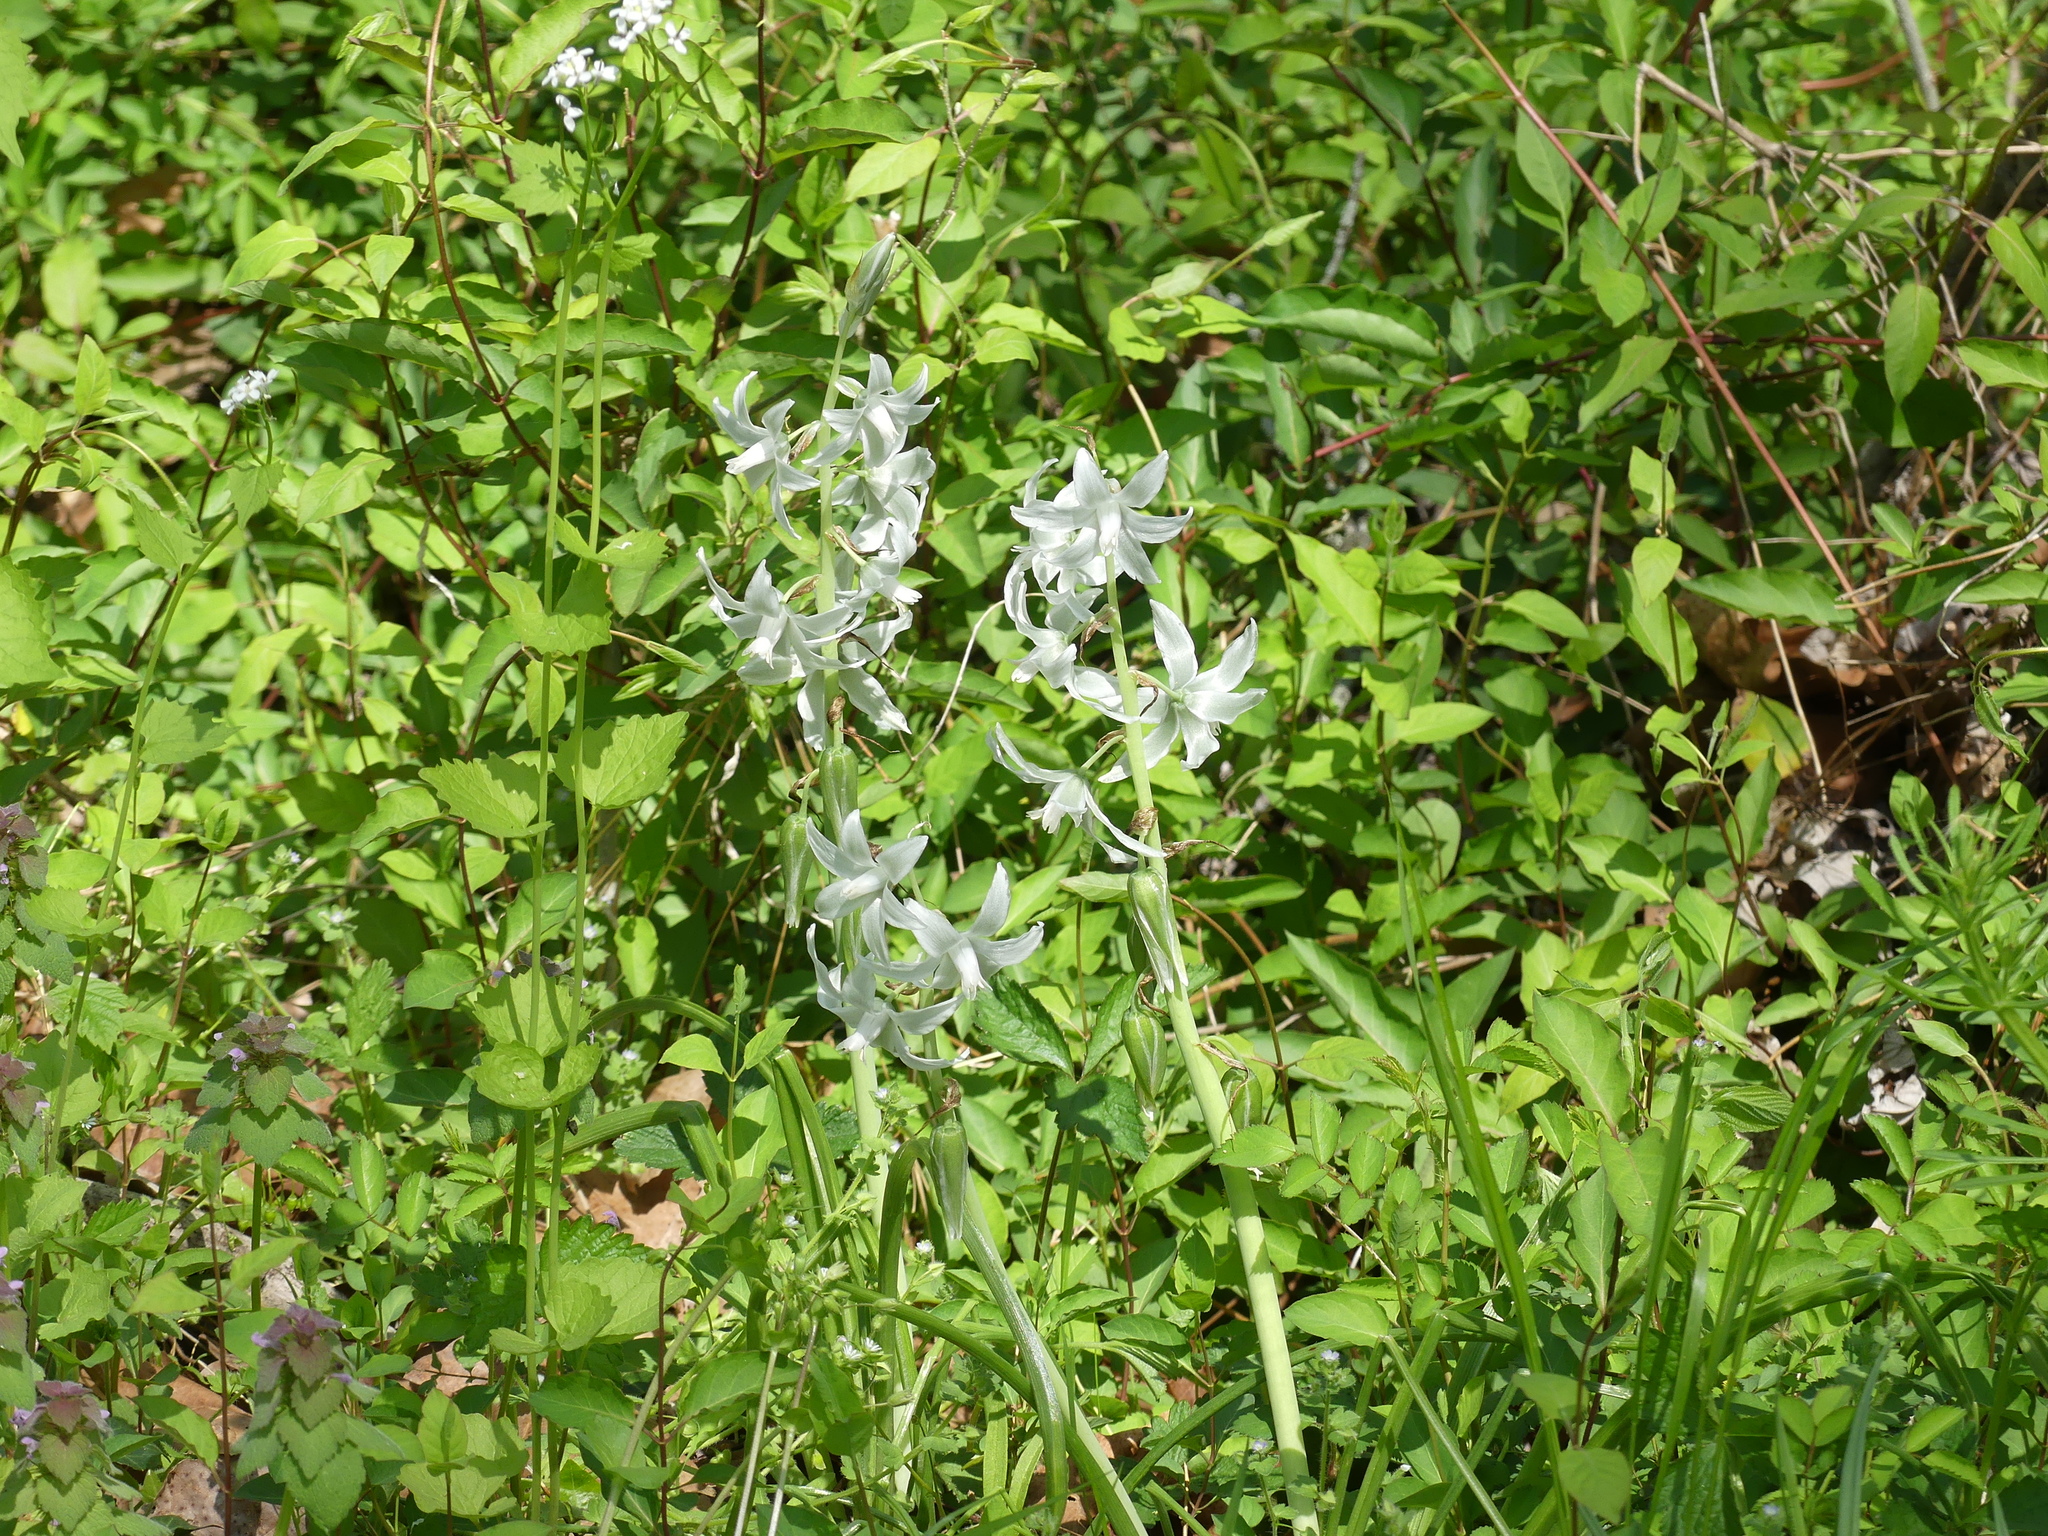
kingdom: Plantae
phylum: Tracheophyta
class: Liliopsida
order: Asparagales
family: Asparagaceae
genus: Ornithogalum
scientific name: Ornithogalum nutans
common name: Drooping star-of-bethlehem
